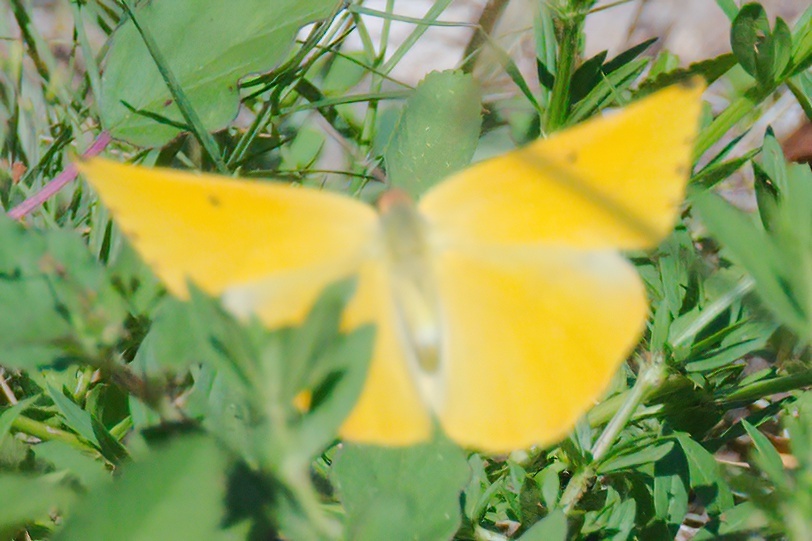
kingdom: Animalia
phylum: Arthropoda
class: Insecta
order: Lepidoptera
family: Pieridae
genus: Phoebis
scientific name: Phoebis agarithe
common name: Large orange sulphur
